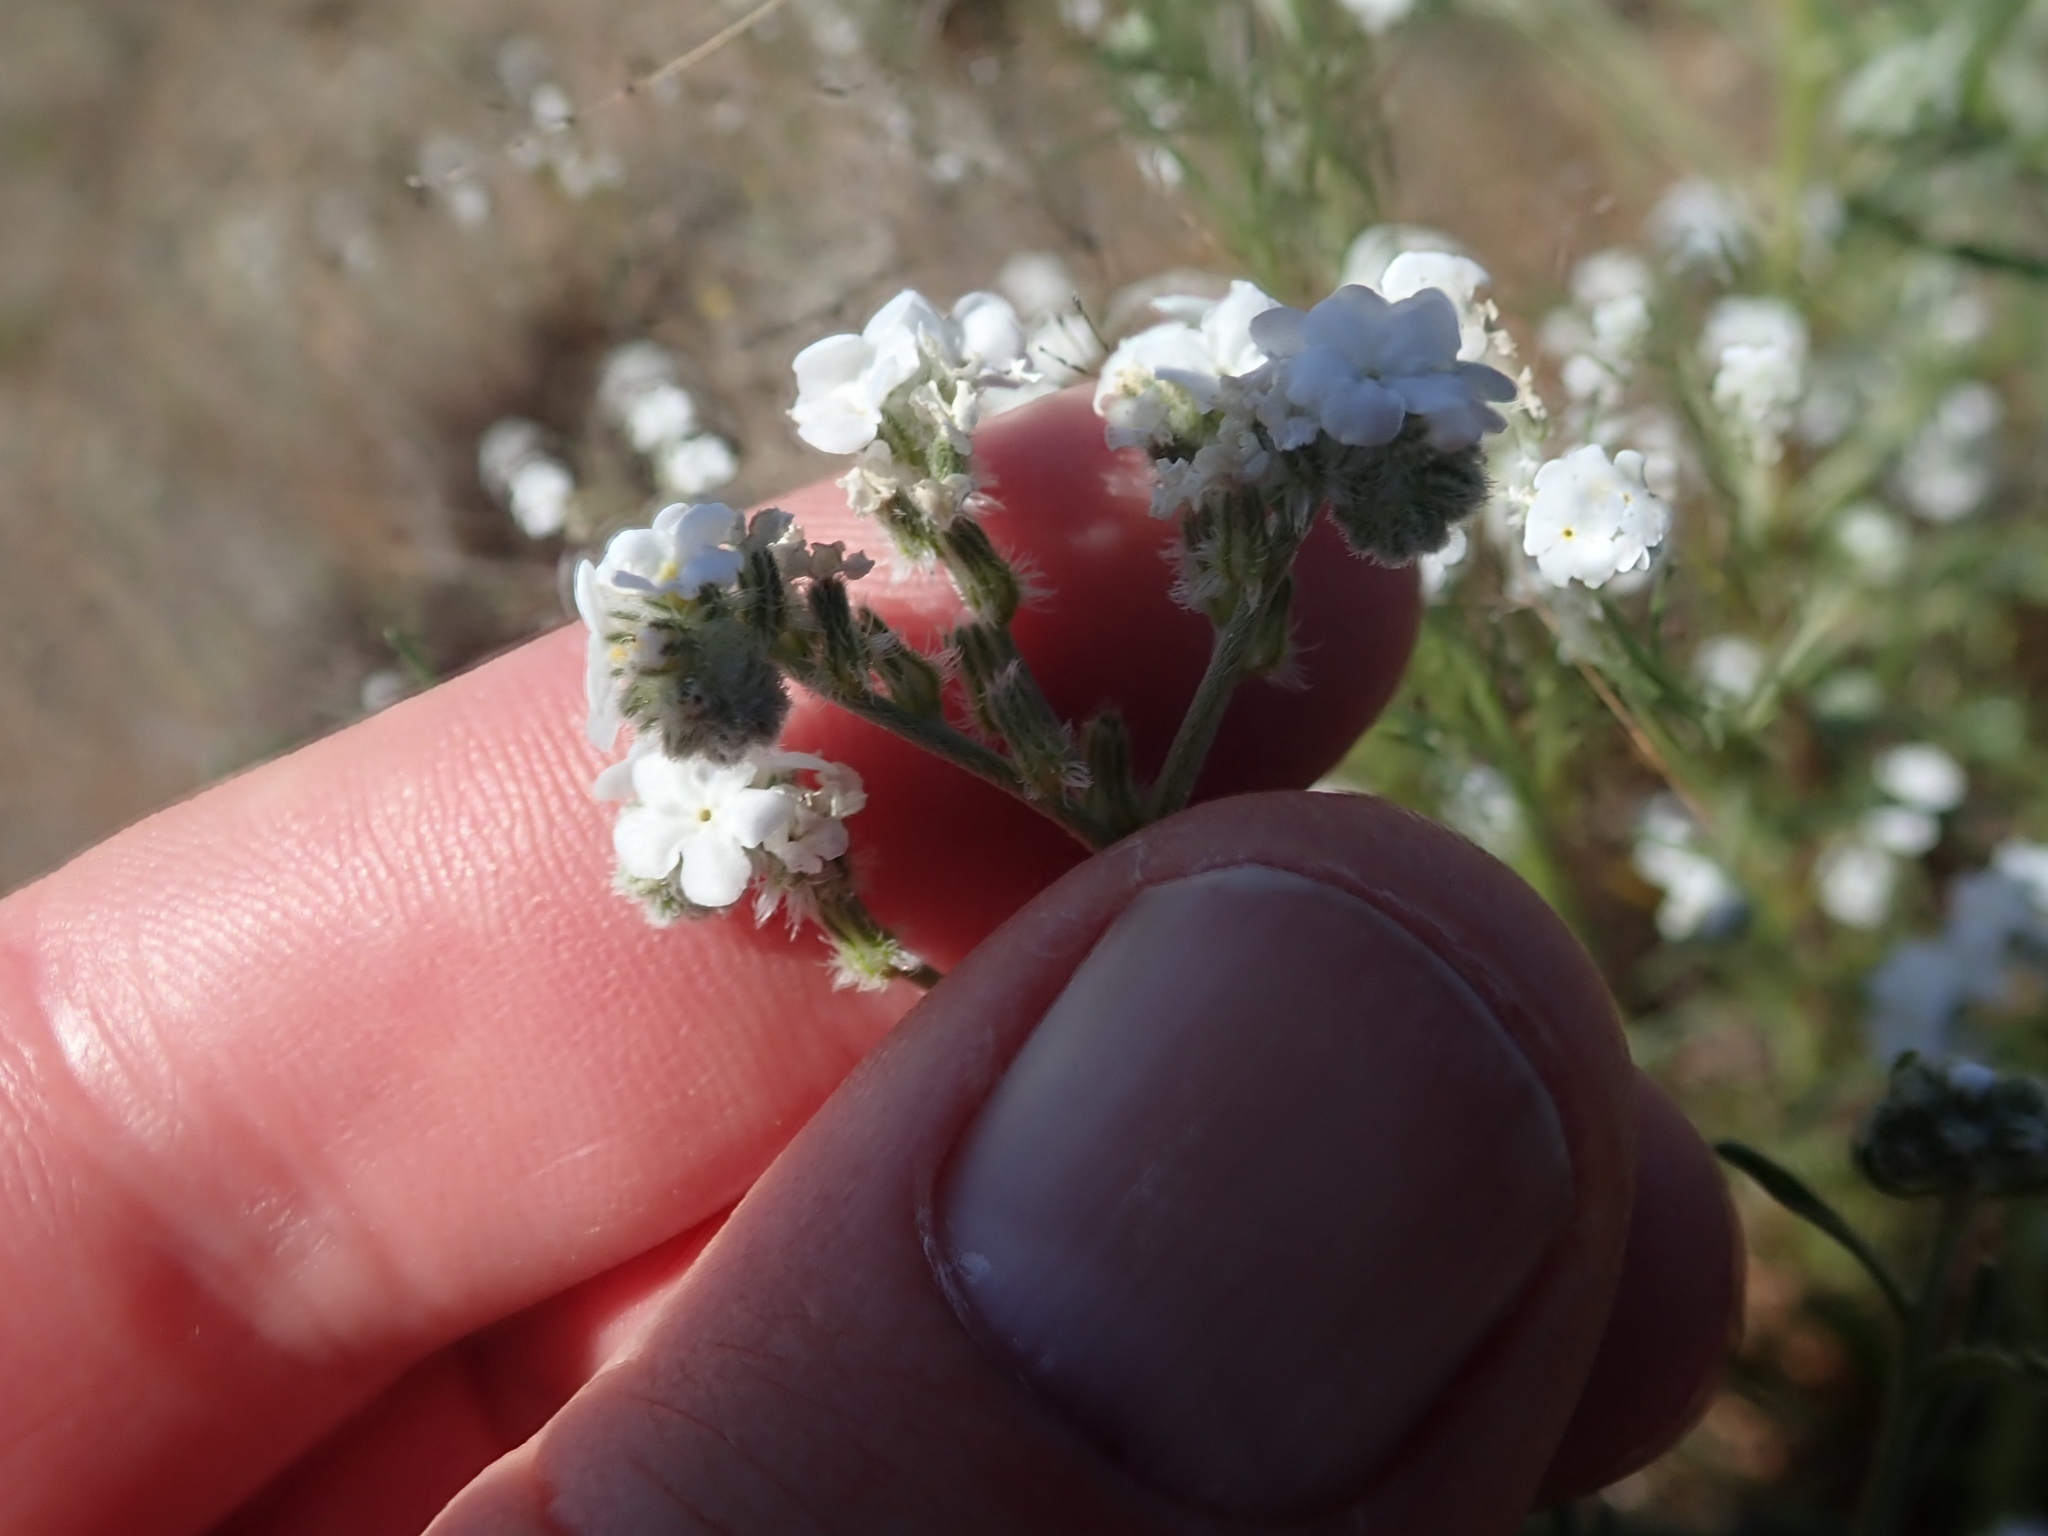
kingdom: Plantae
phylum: Tracheophyta
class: Magnoliopsida
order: Boraginales
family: Boraginaceae
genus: Cryptantha
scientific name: Cryptantha flaccida
